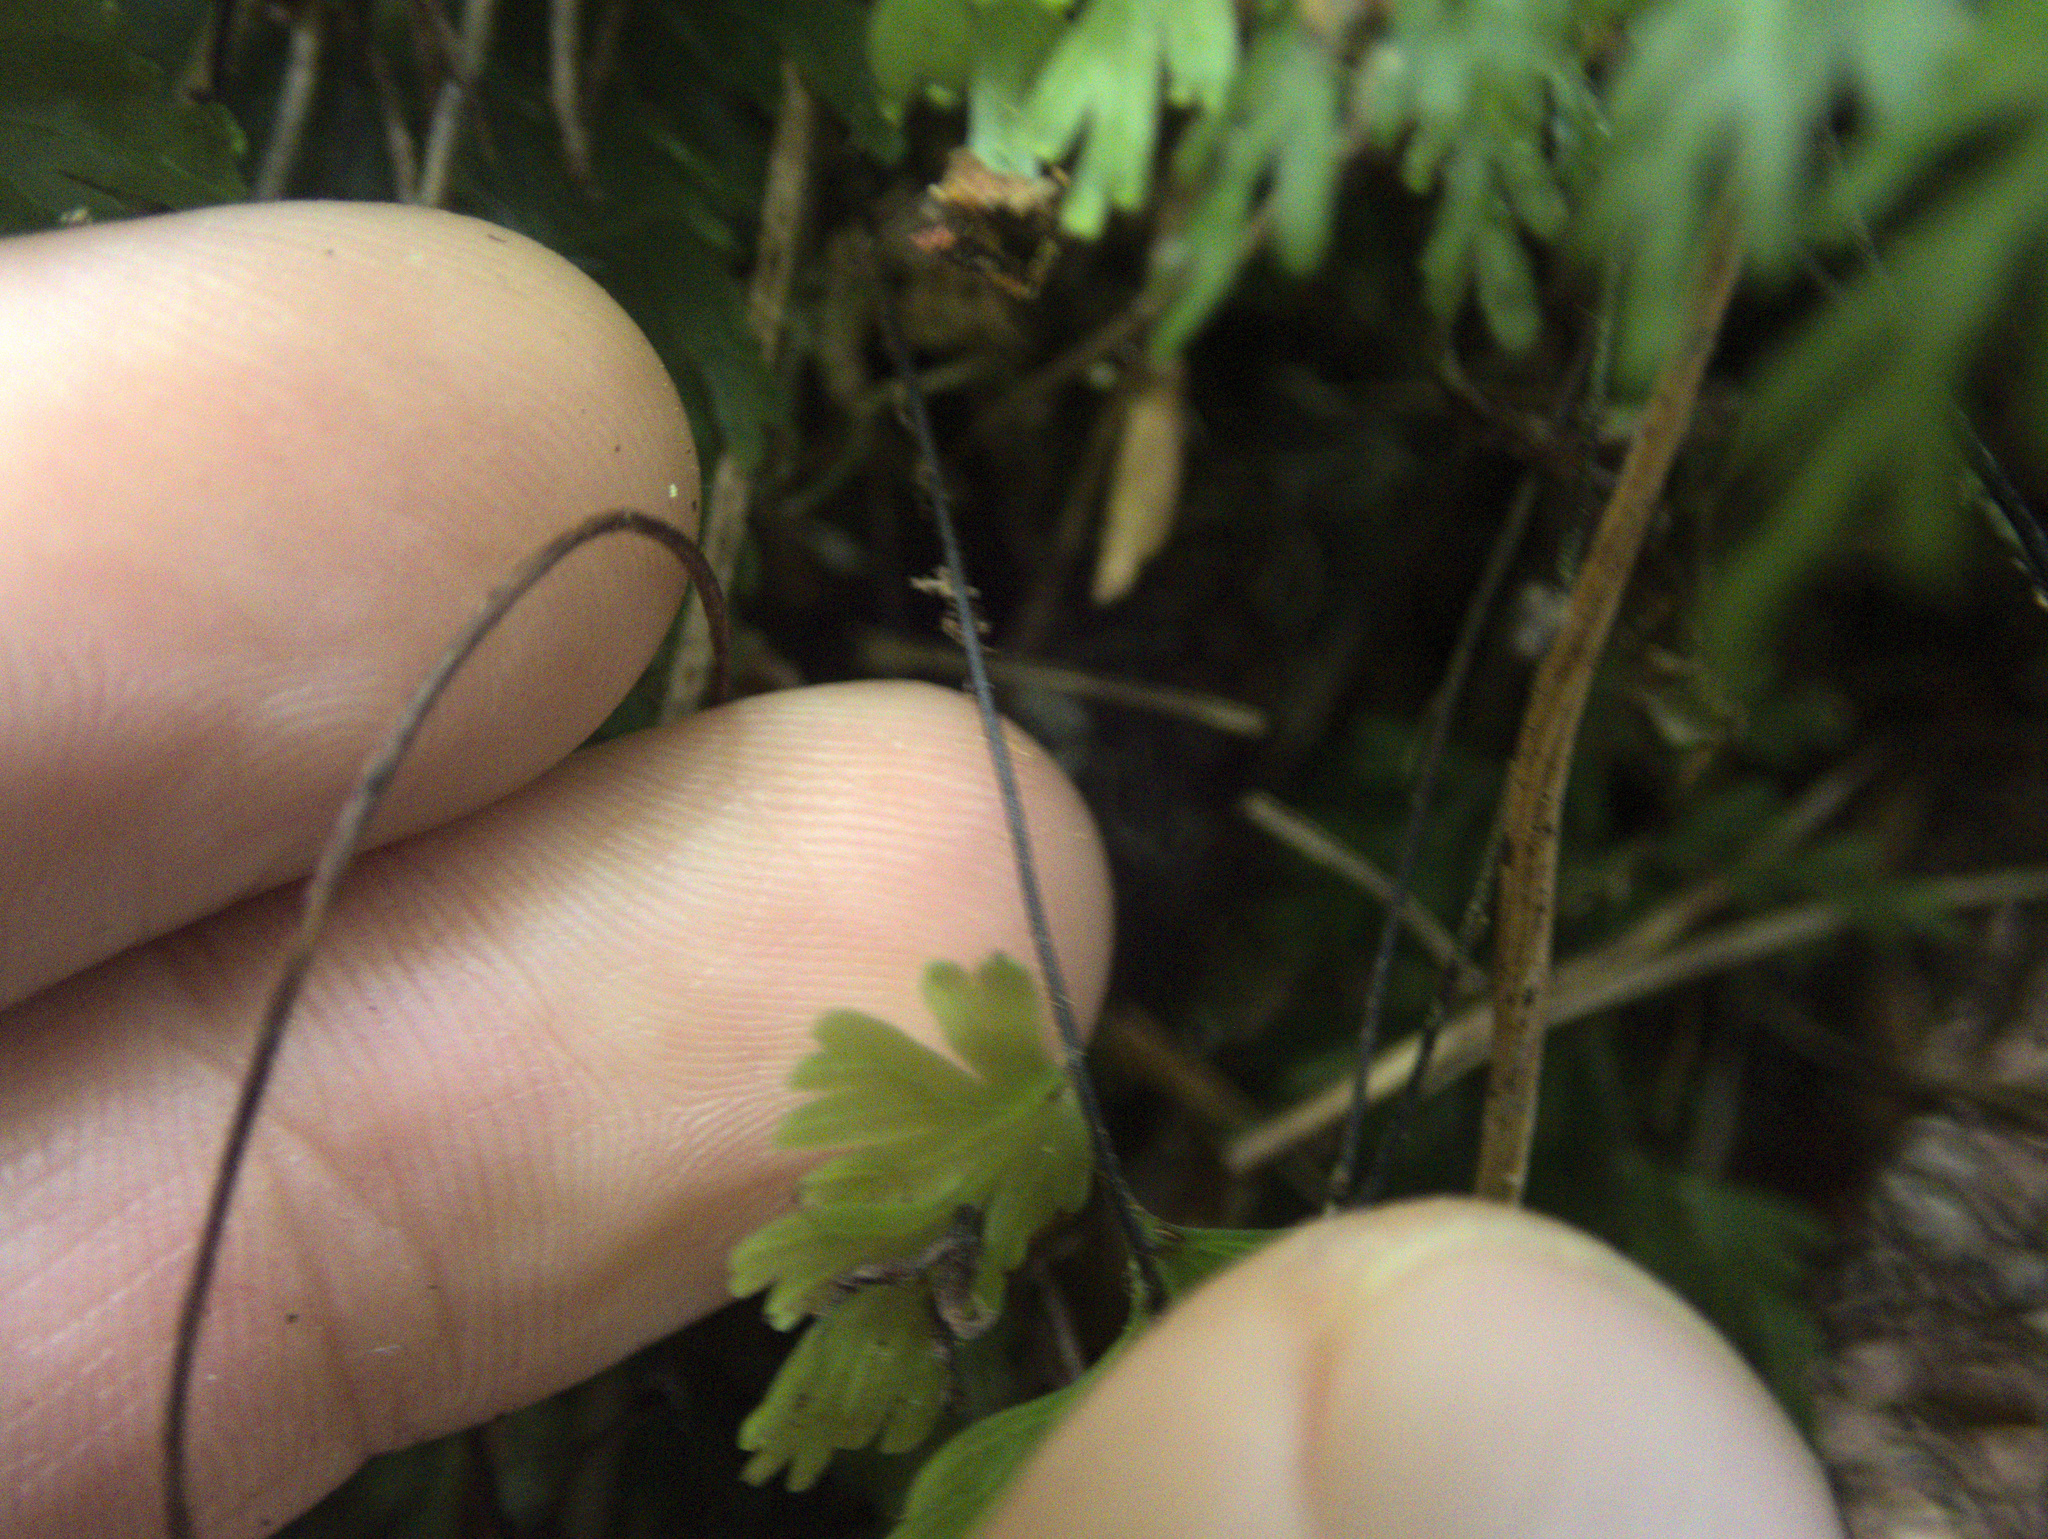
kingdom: Plantae
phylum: Tracheophyta
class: Polypodiopsida
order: Hymenophyllales
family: Hymenophyllaceae
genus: Hymenophyllum
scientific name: Hymenophyllum flabellatum
